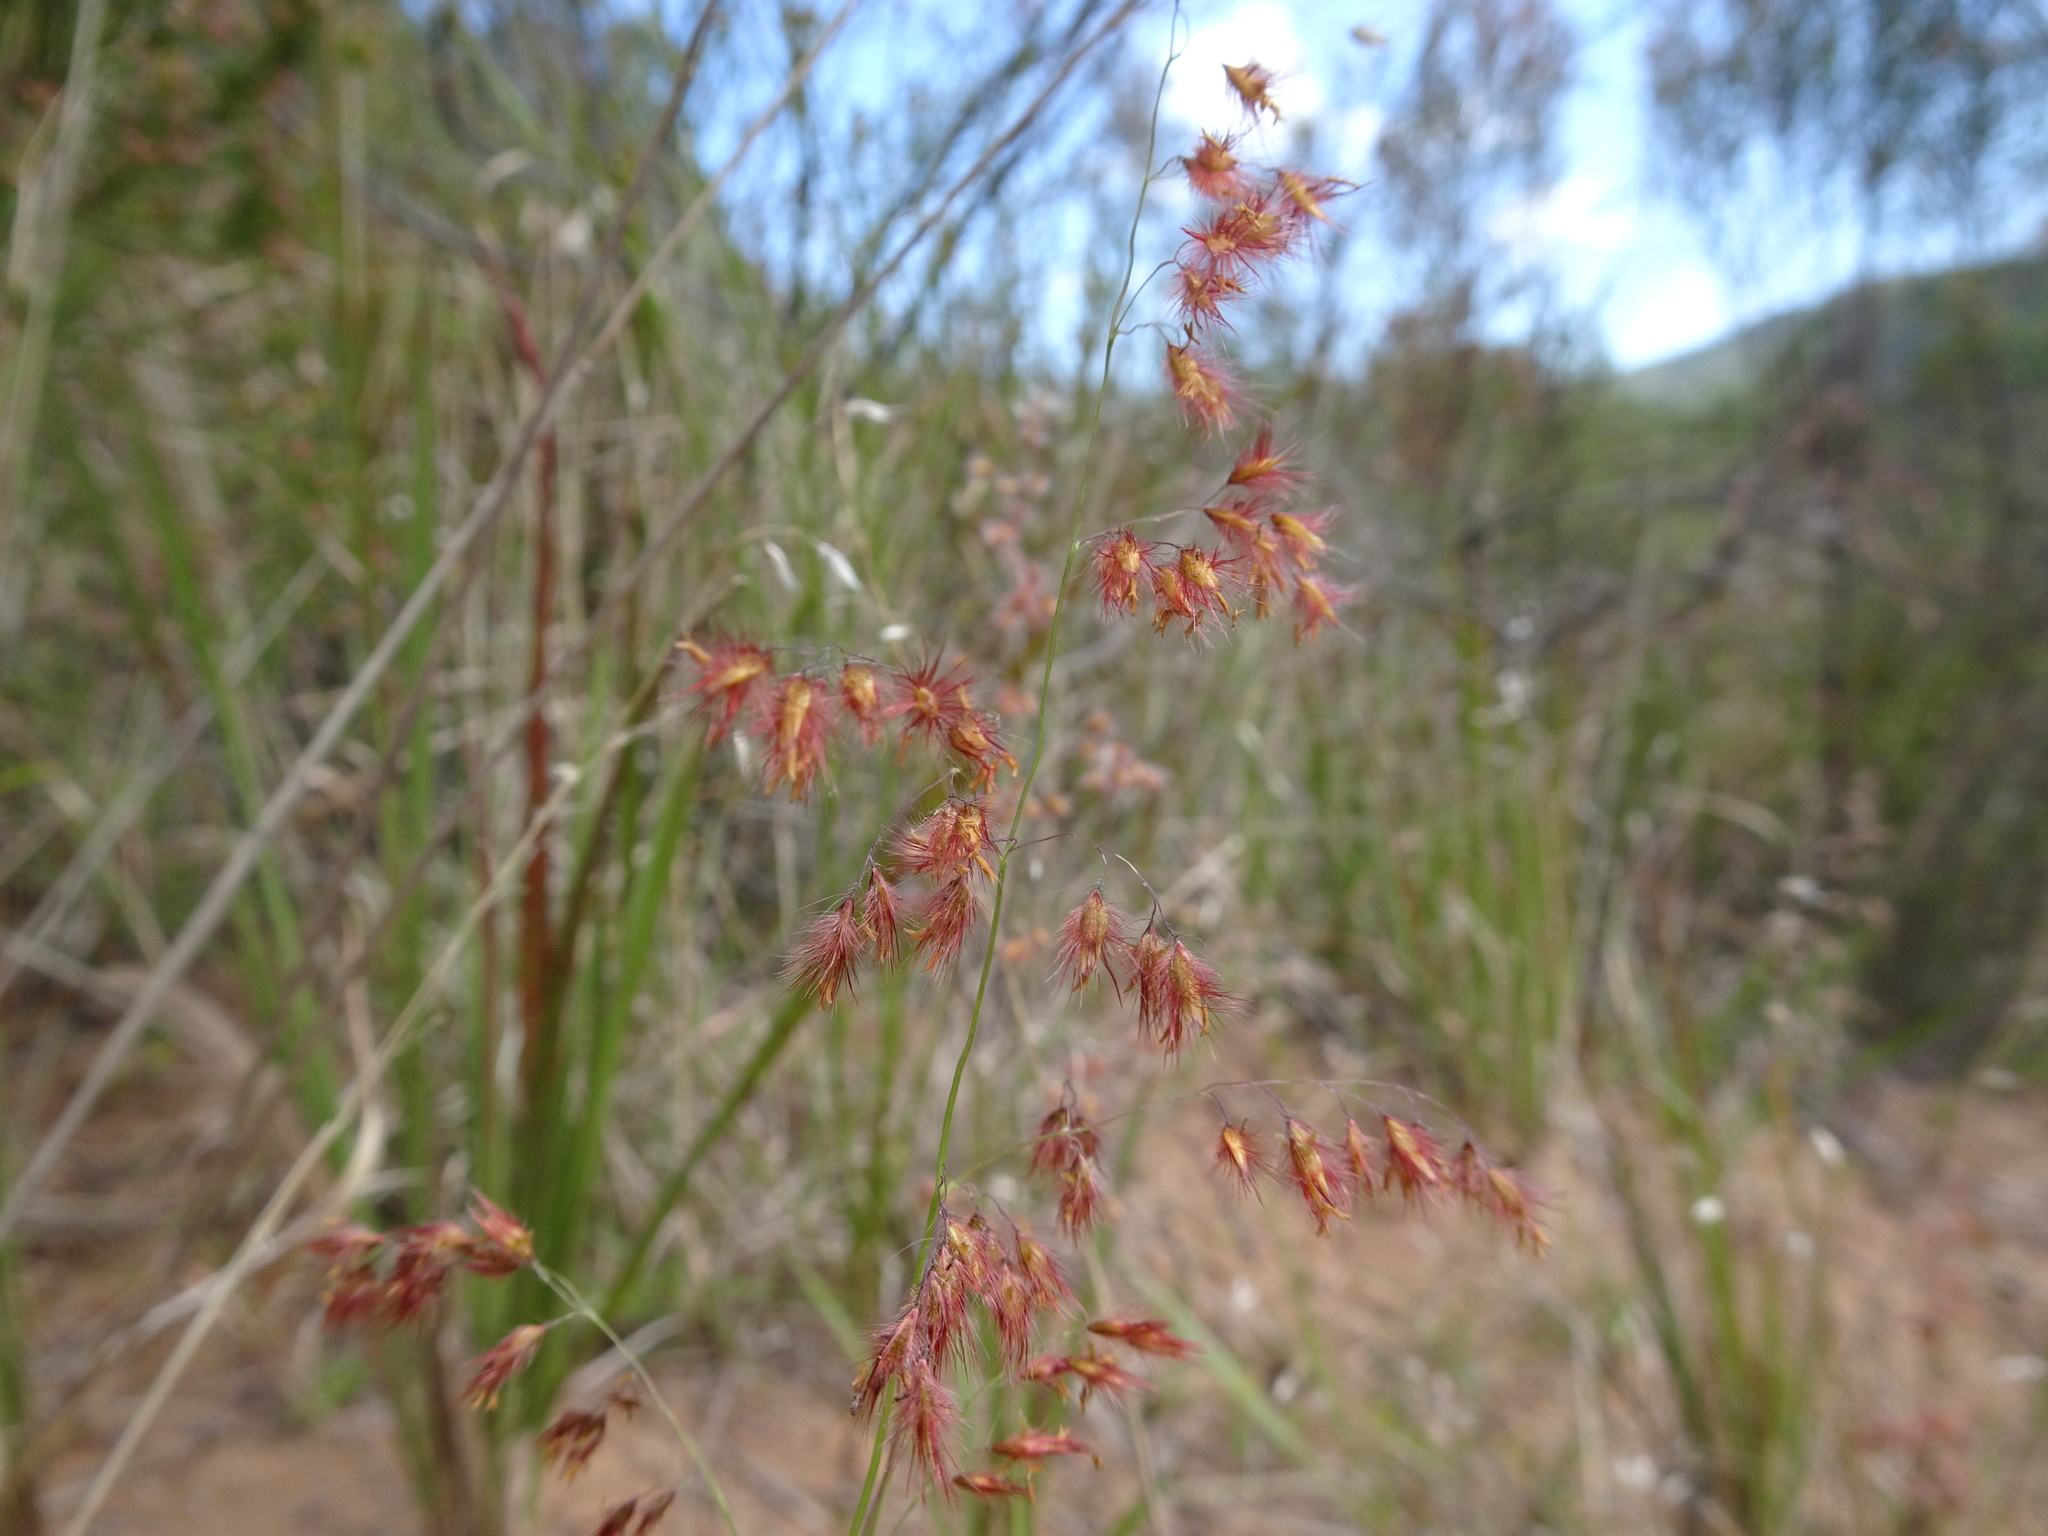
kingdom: Plantae
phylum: Tracheophyta
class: Liliopsida
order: Poales
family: Poaceae
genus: Melinis
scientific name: Melinis repens
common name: Rose natal grass
